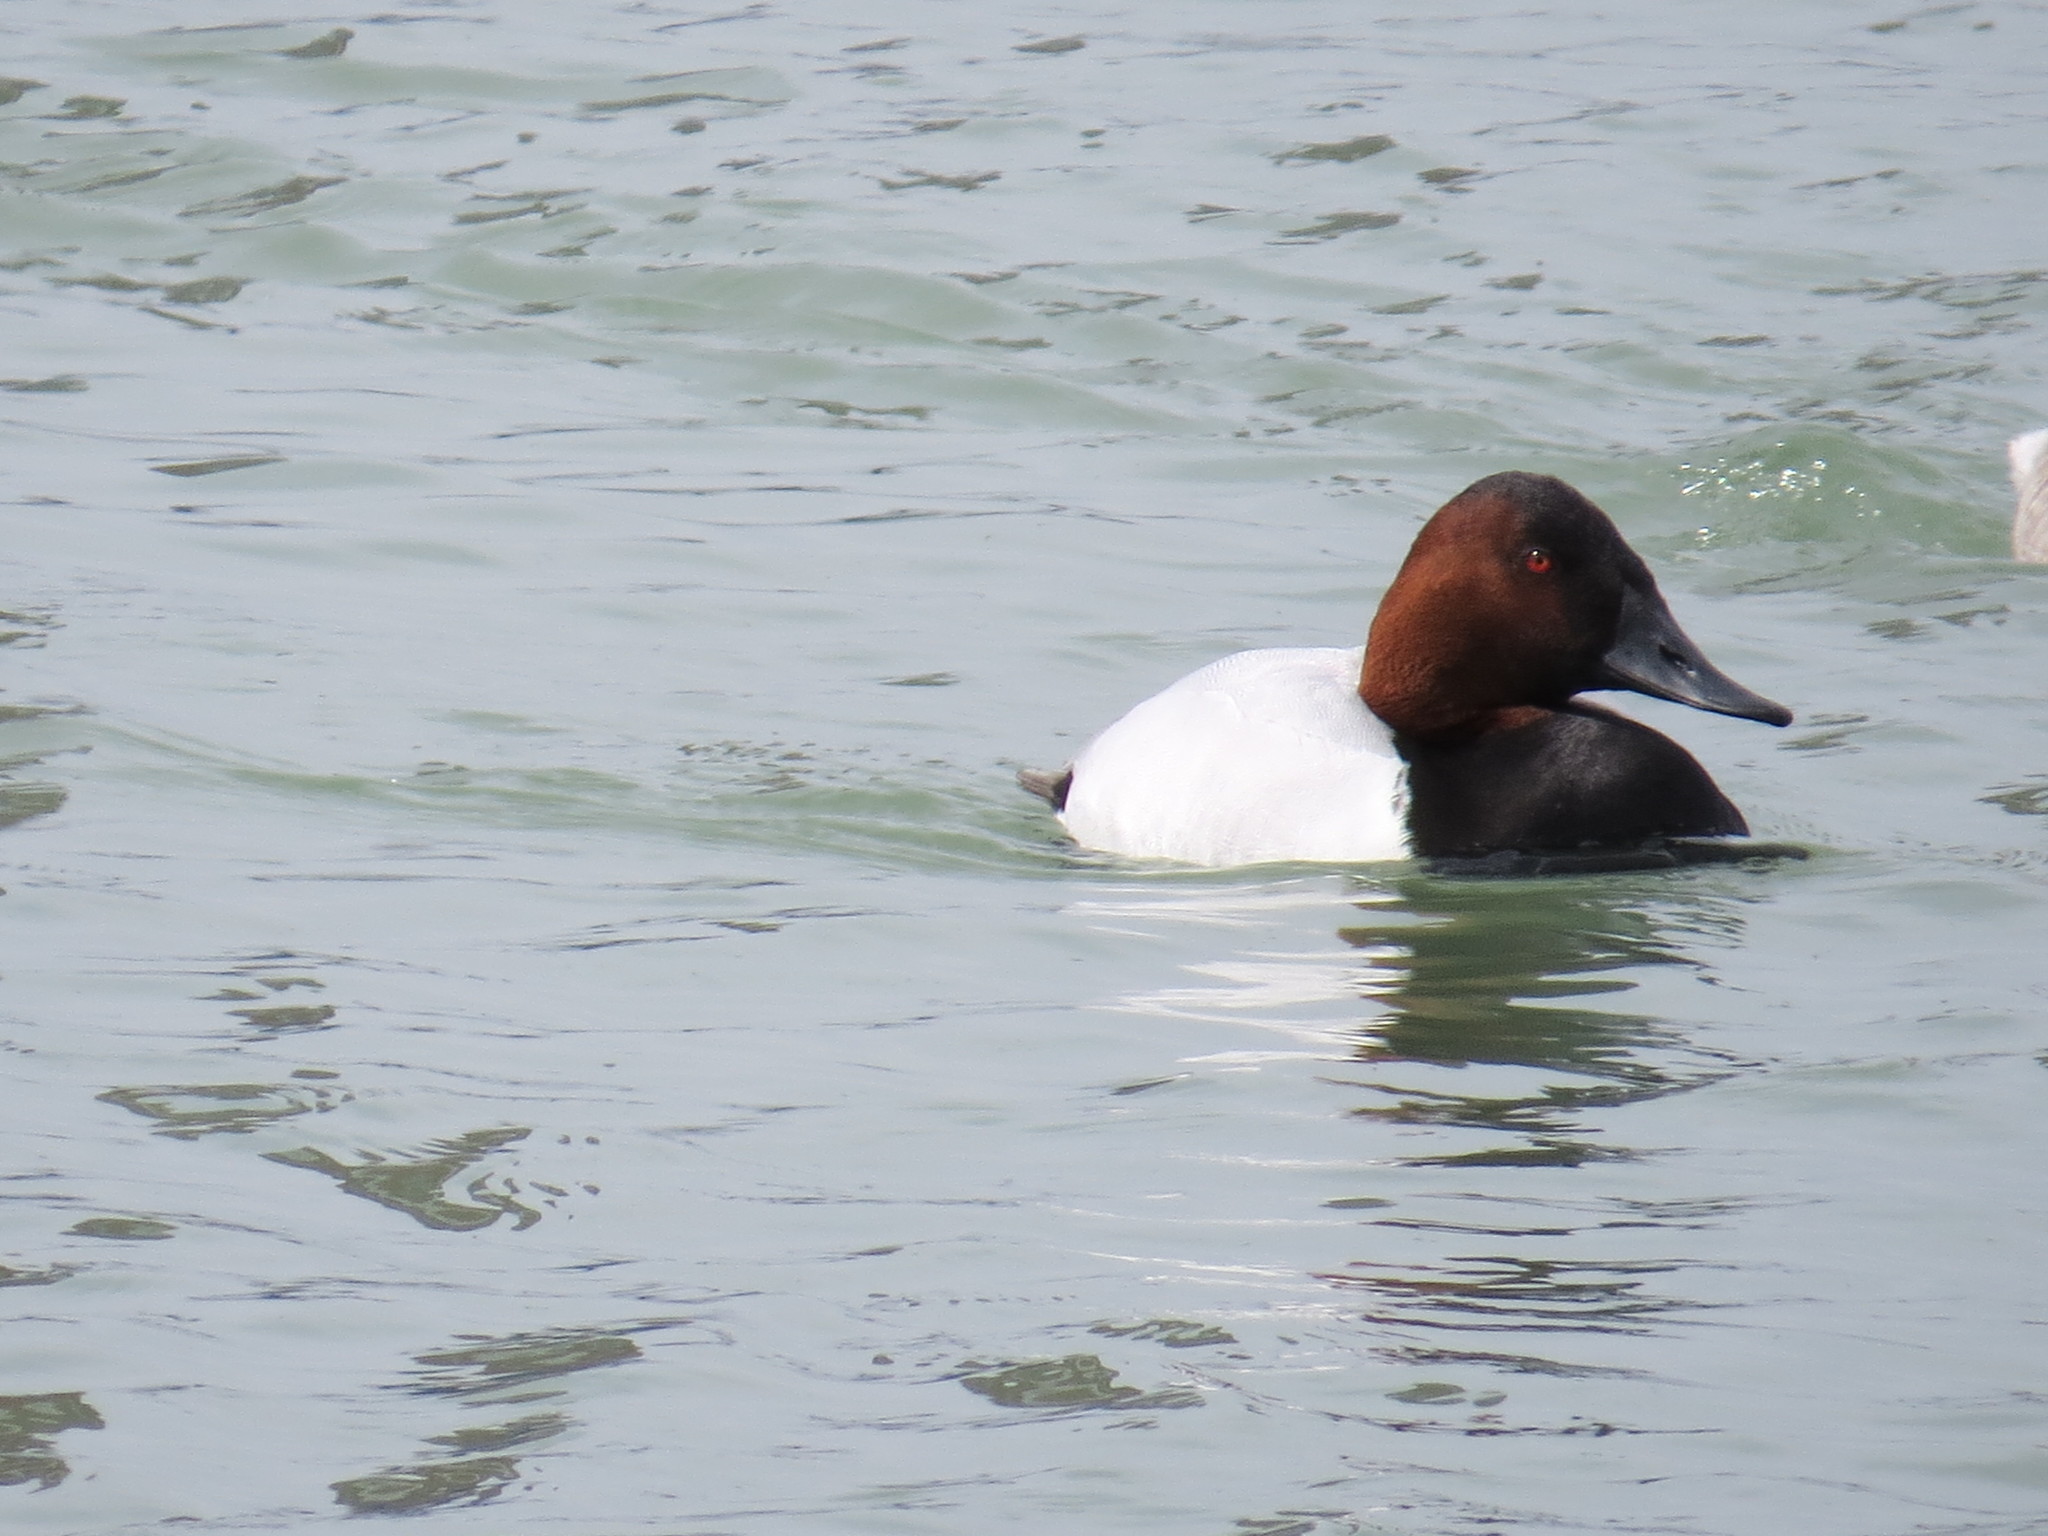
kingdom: Animalia
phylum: Chordata
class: Aves
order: Anseriformes
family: Anatidae
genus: Aythya
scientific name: Aythya valisineria
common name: Canvasback
